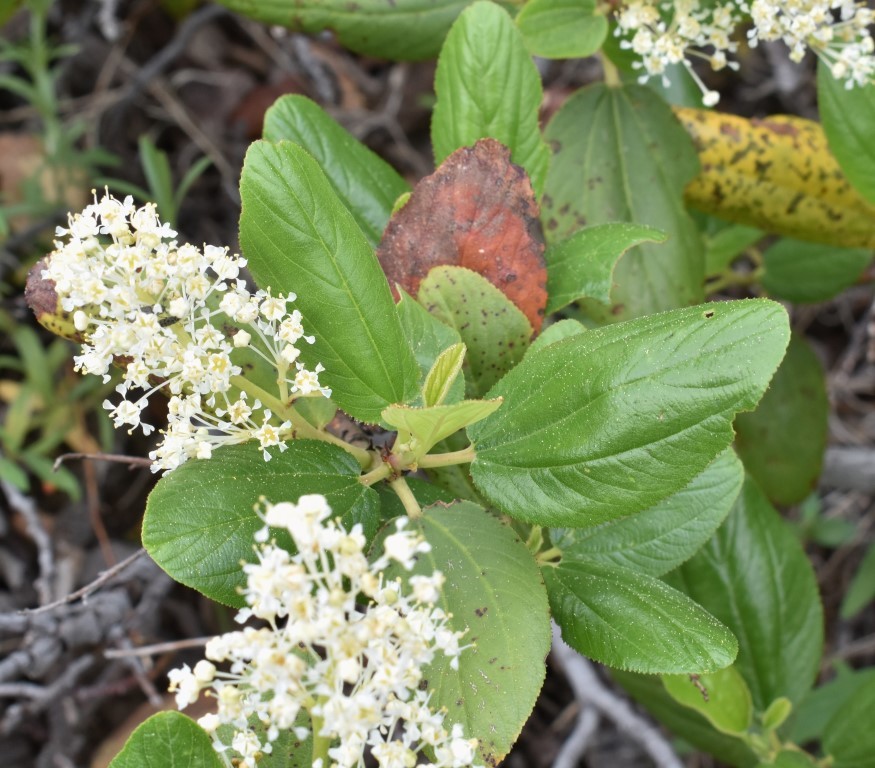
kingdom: Plantae
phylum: Tracheophyta
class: Magnoliopsida
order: Rosales
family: Rhamnaceae
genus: Ceanothus
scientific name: Ceanothus velutinus
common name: Snowbrush
